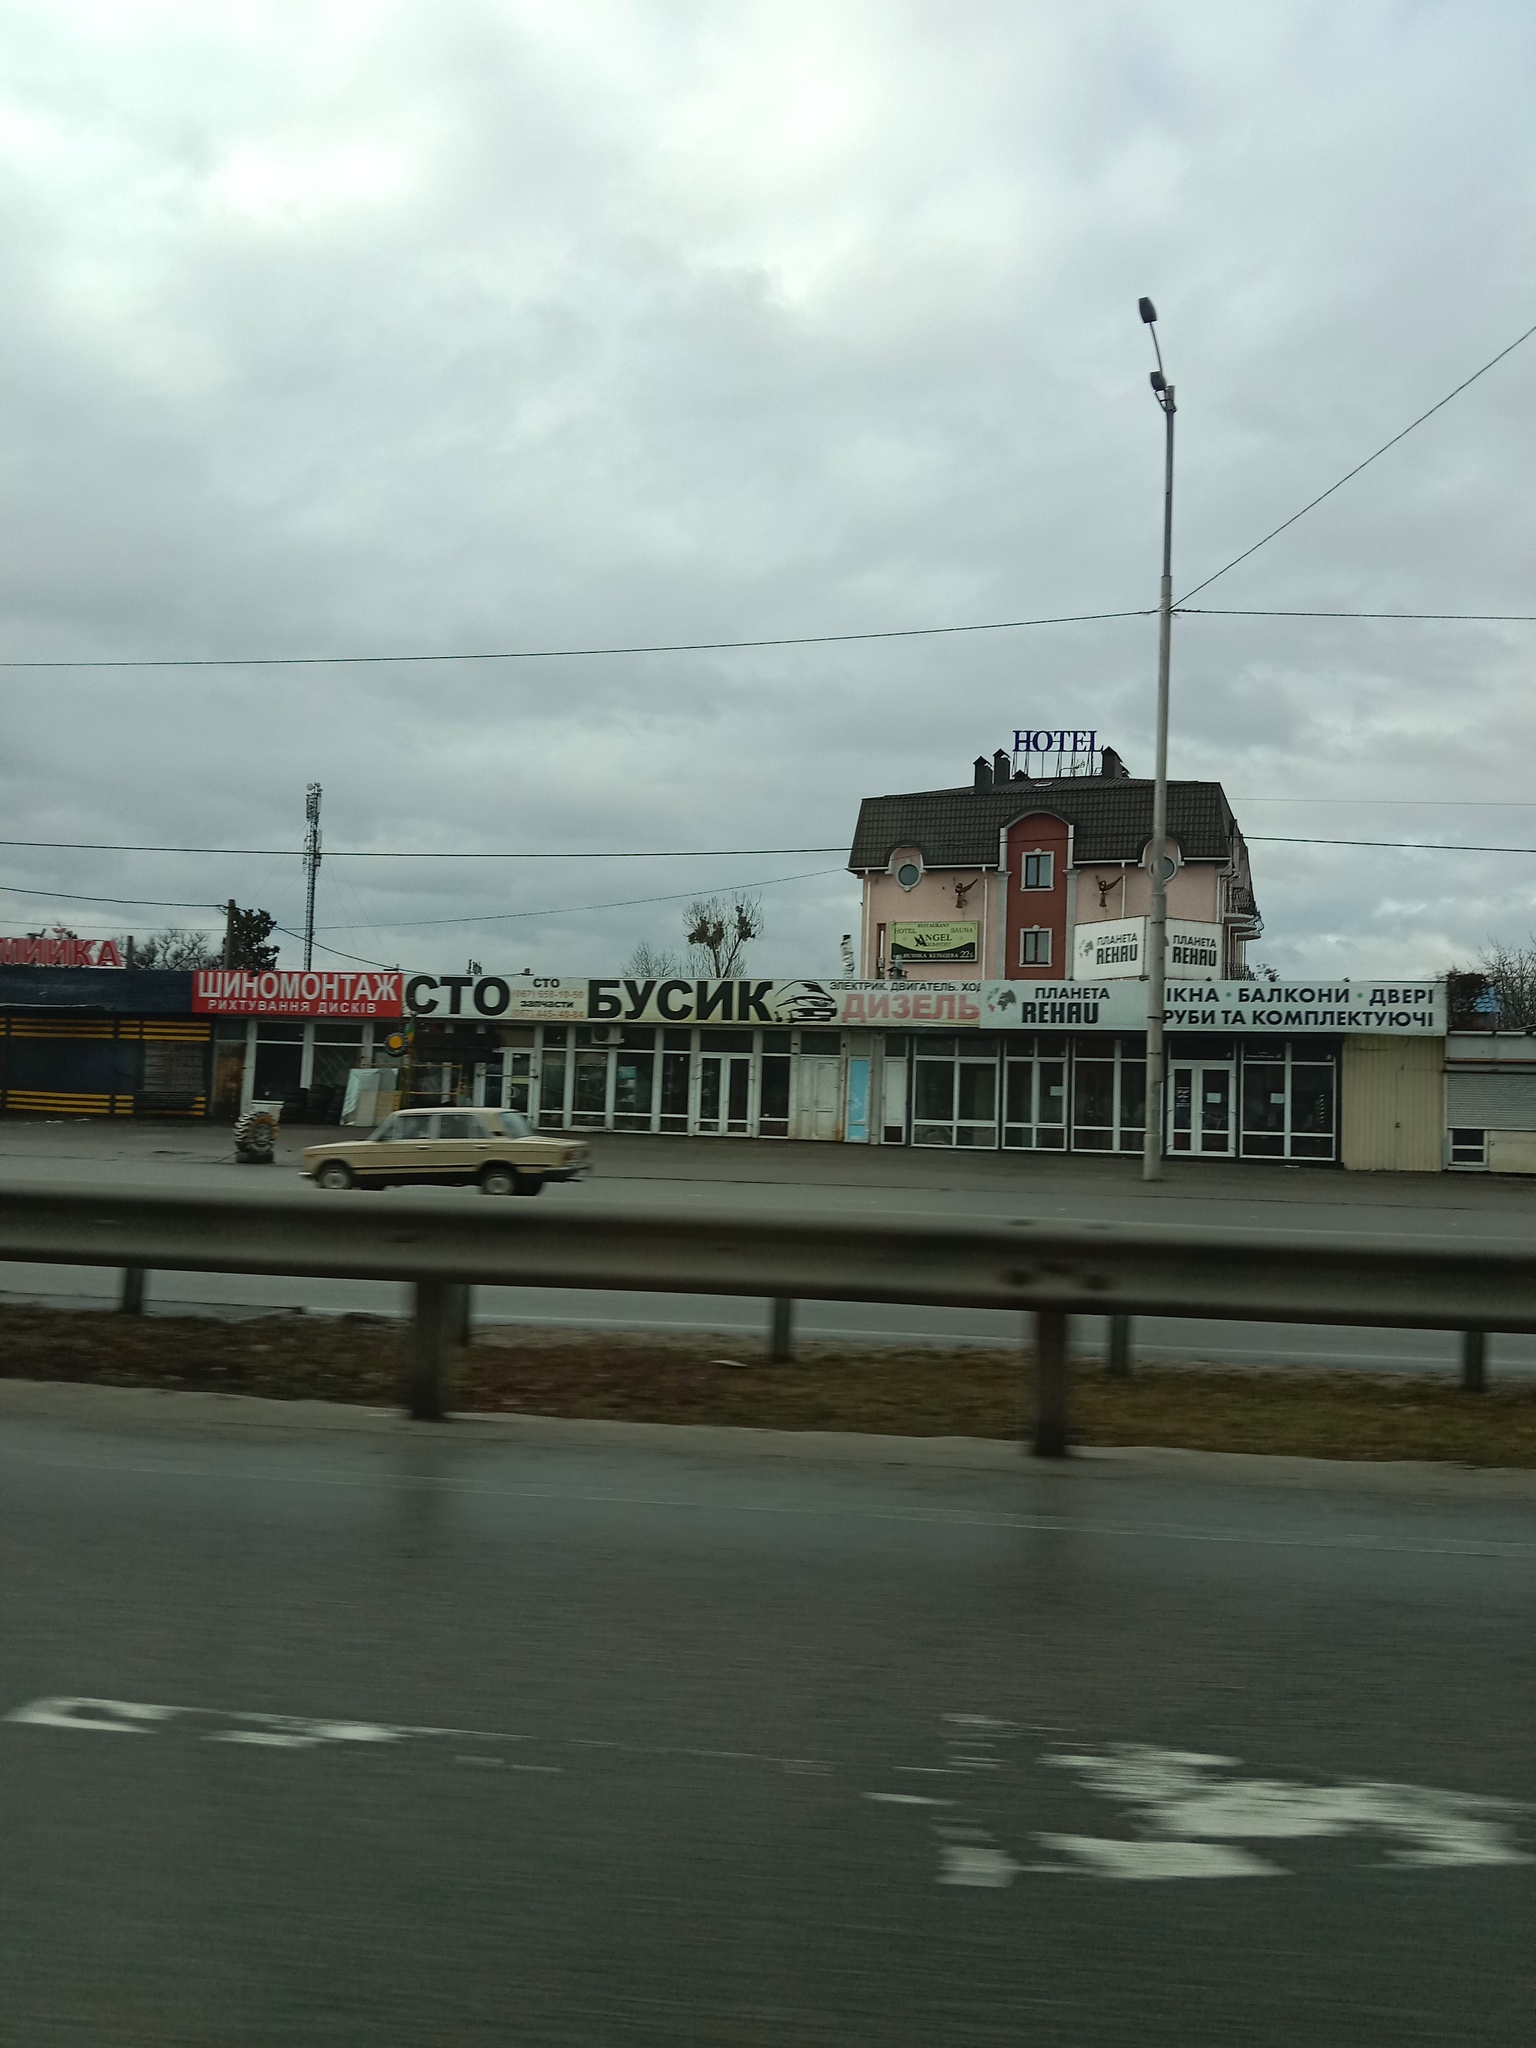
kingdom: Plantae
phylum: Tracheophyta
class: Magnoliopsida
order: Santalales
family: Viscaceae
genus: Viscum
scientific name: Viscum album
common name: Mistletoe
